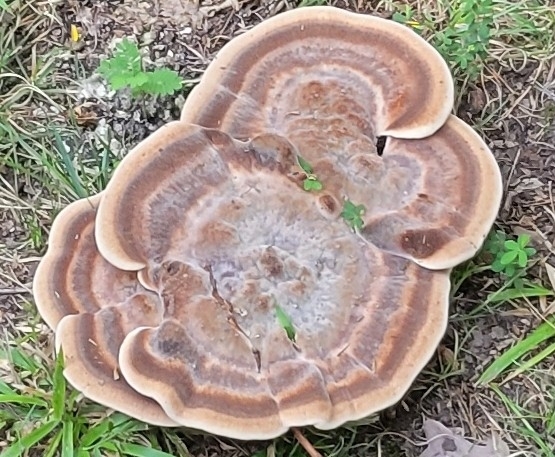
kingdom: Fungi
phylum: Basidiomycota
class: Agaricomycetes
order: Polyporales
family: Laetiporaceae
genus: Berkcurtia
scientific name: Berkcurtia persicina
